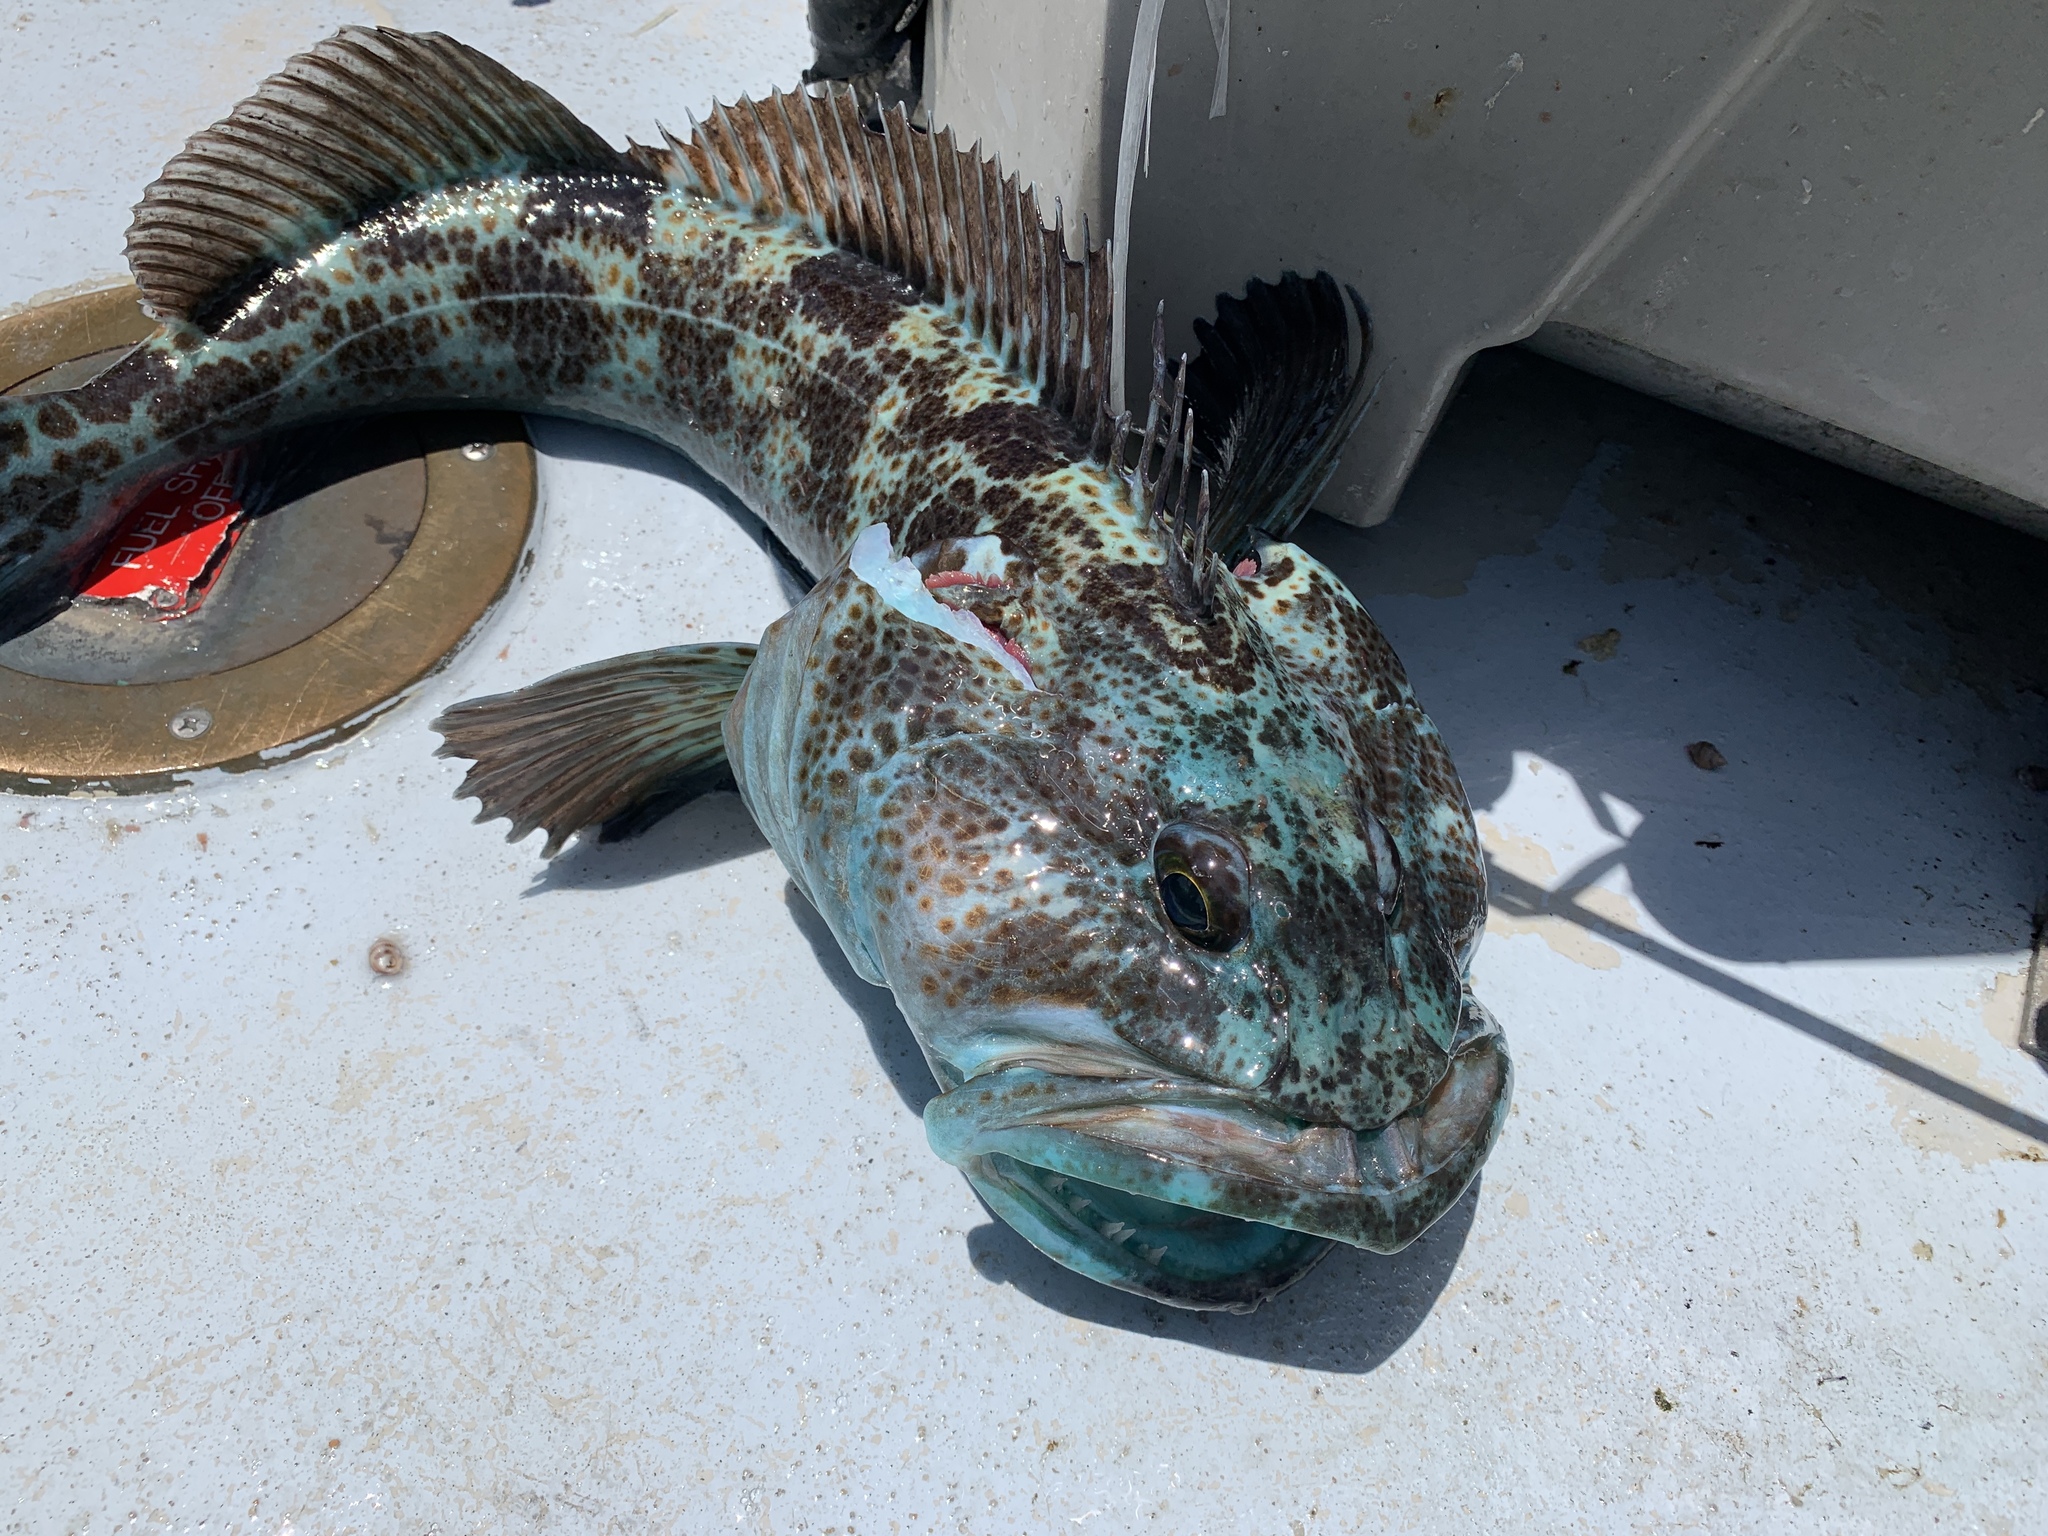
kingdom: Animalia
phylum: Chordata
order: Scorpaeniformes
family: Hexagrammidae
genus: Ophiodon
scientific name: Ophiodon elongatus
